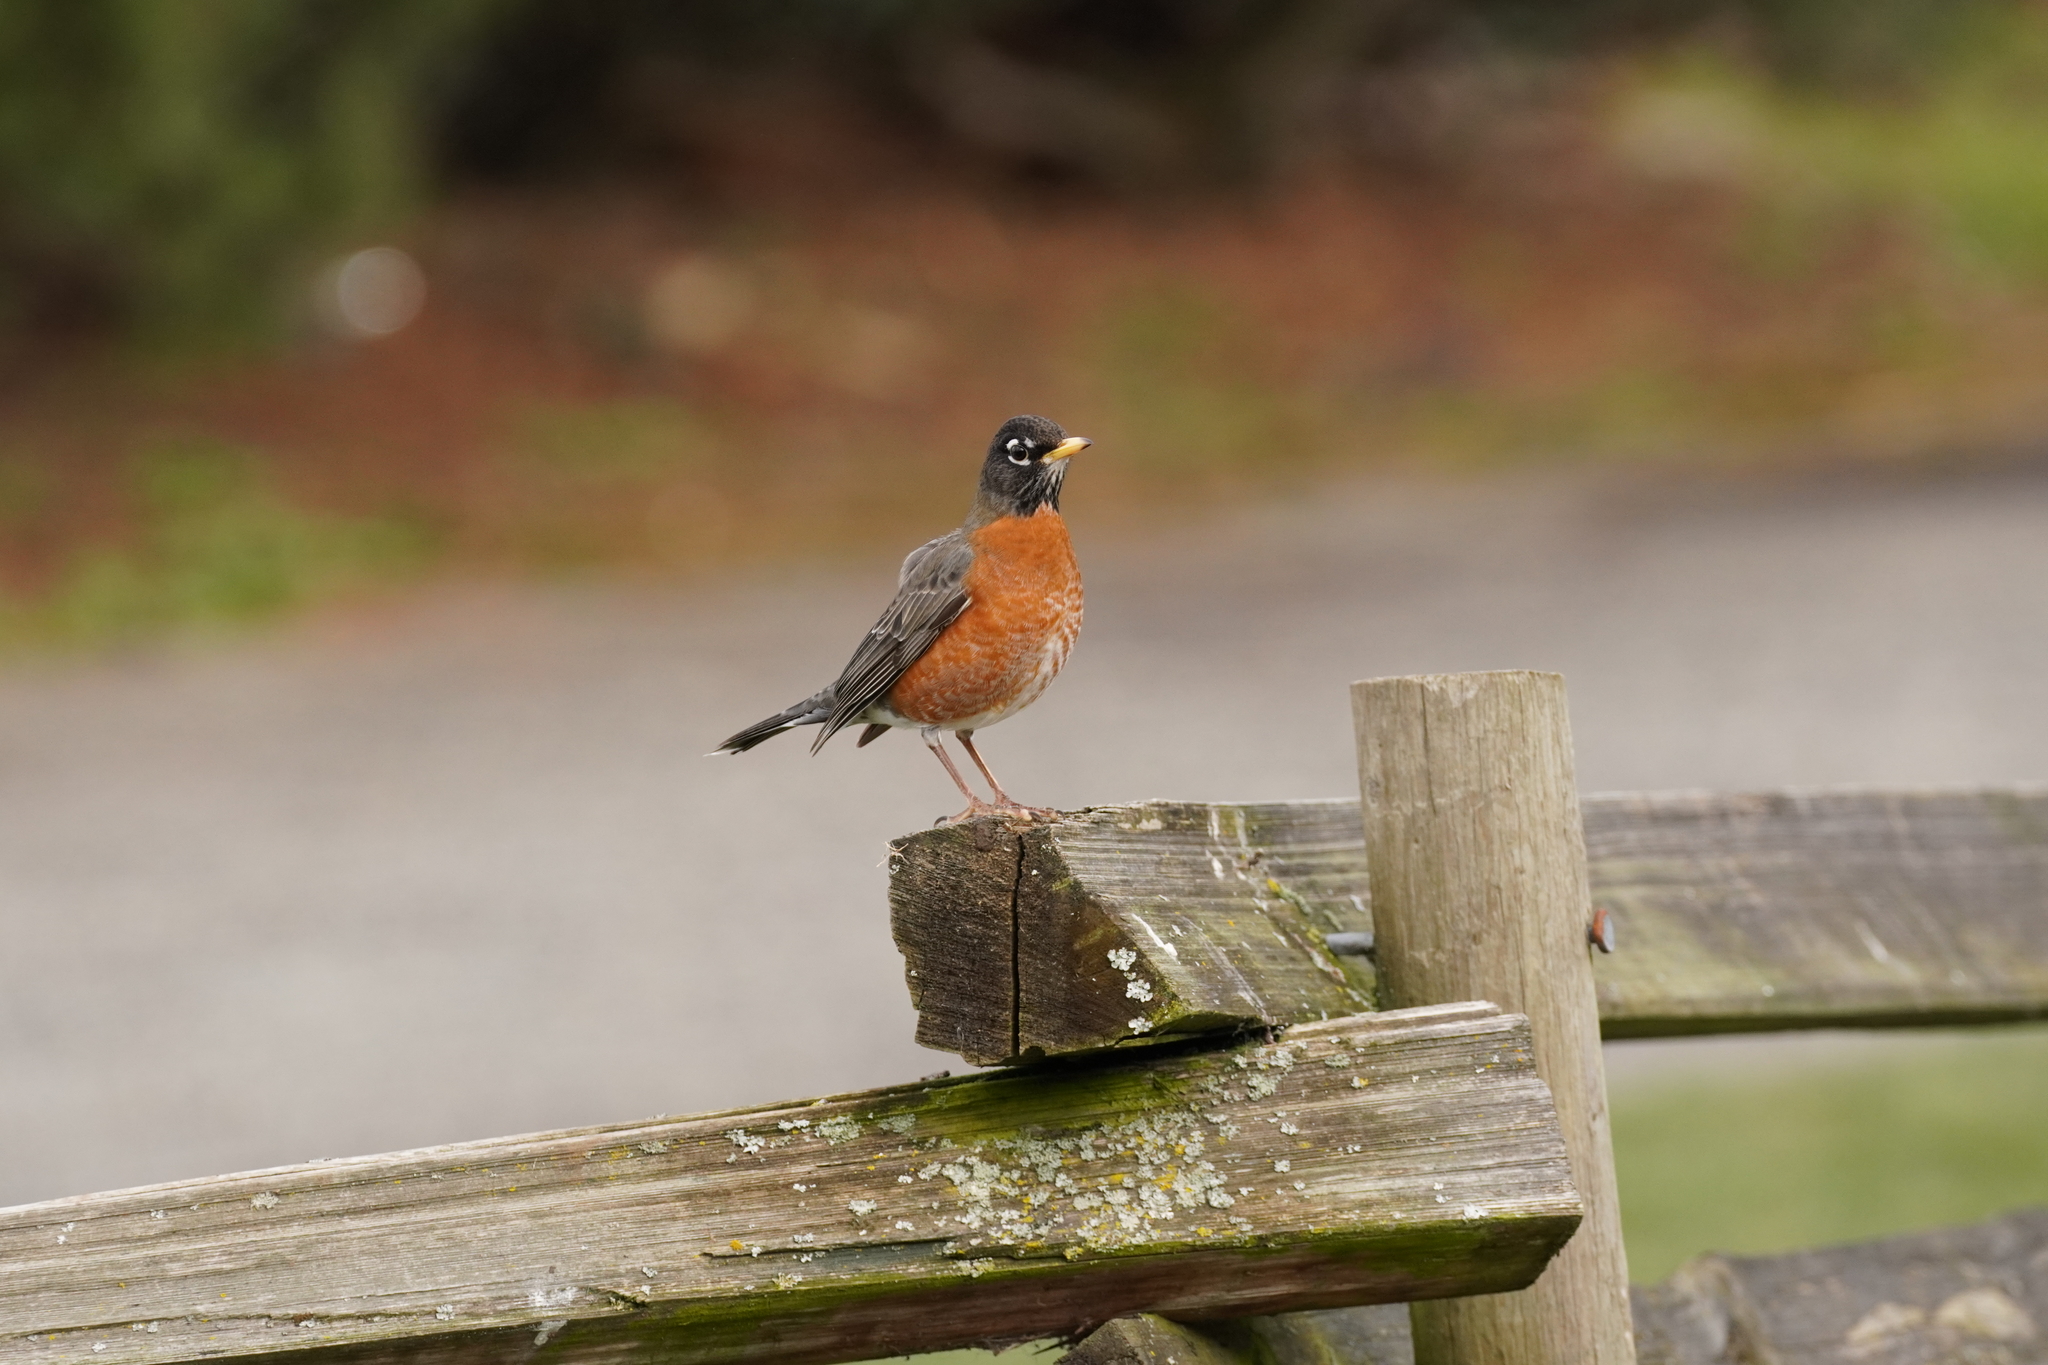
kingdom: Animalia
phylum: Chordata
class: Aves
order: Passeriformes
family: Turdidae
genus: Turdus
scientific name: Turdus migratorius
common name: American robin
